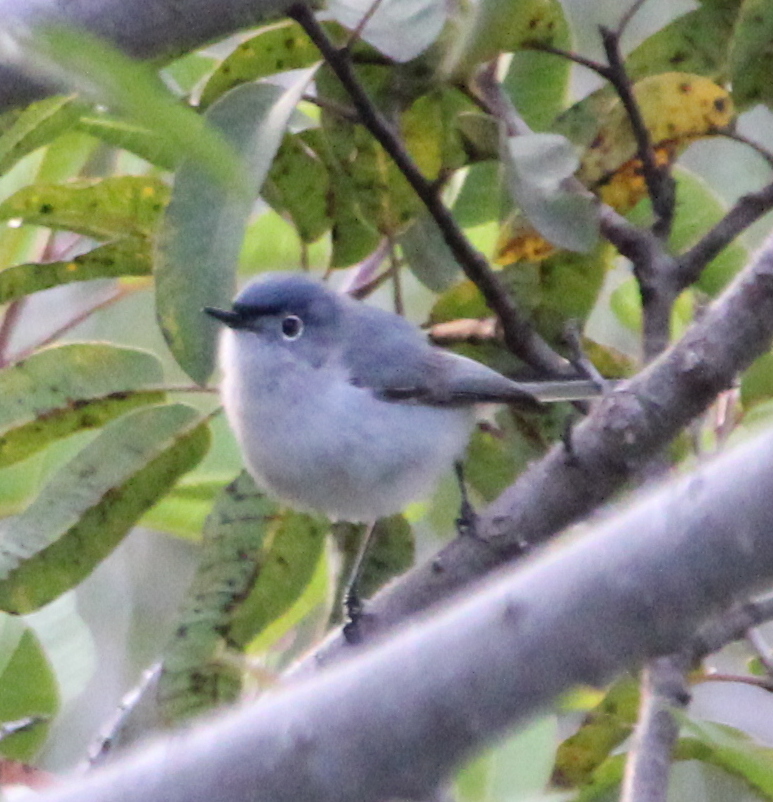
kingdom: Animalia
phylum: Chordata
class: Aves
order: Passeriformes
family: Polioptilidae
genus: Polioptila
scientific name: Polioptila caerulea
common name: Blue-gray gnatcatcher
